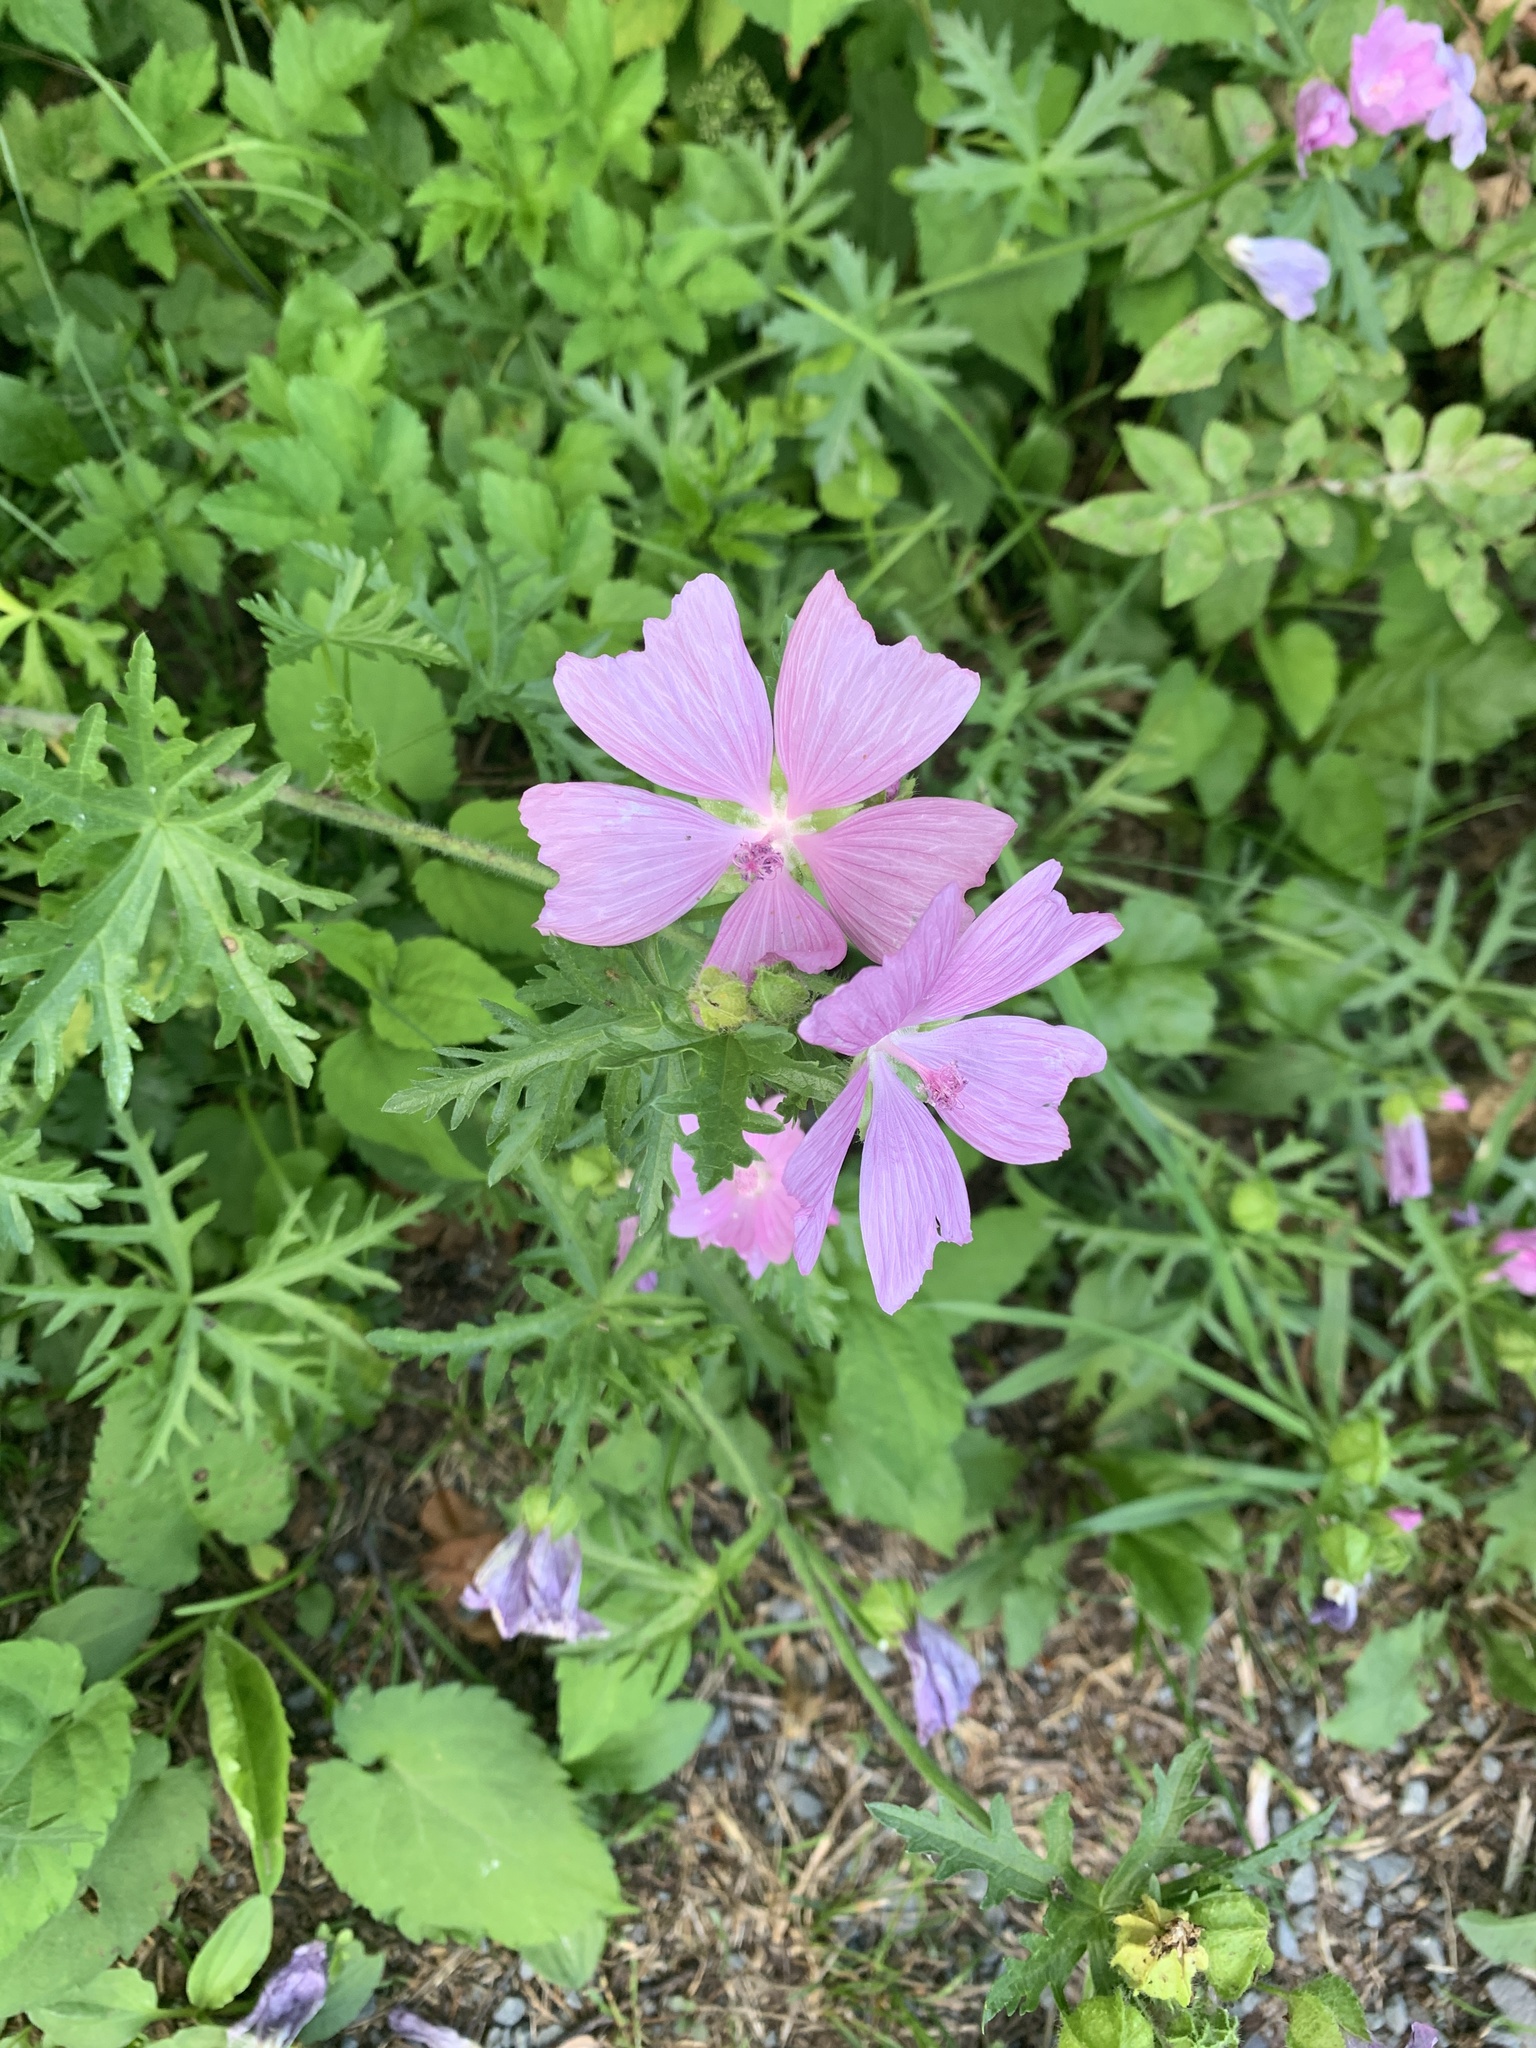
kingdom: Plantae
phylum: Tracheophyta
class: Magnoliopsida
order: Malvales
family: Malvaceae
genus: Malva
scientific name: Malva moschata
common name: Musk mallow
